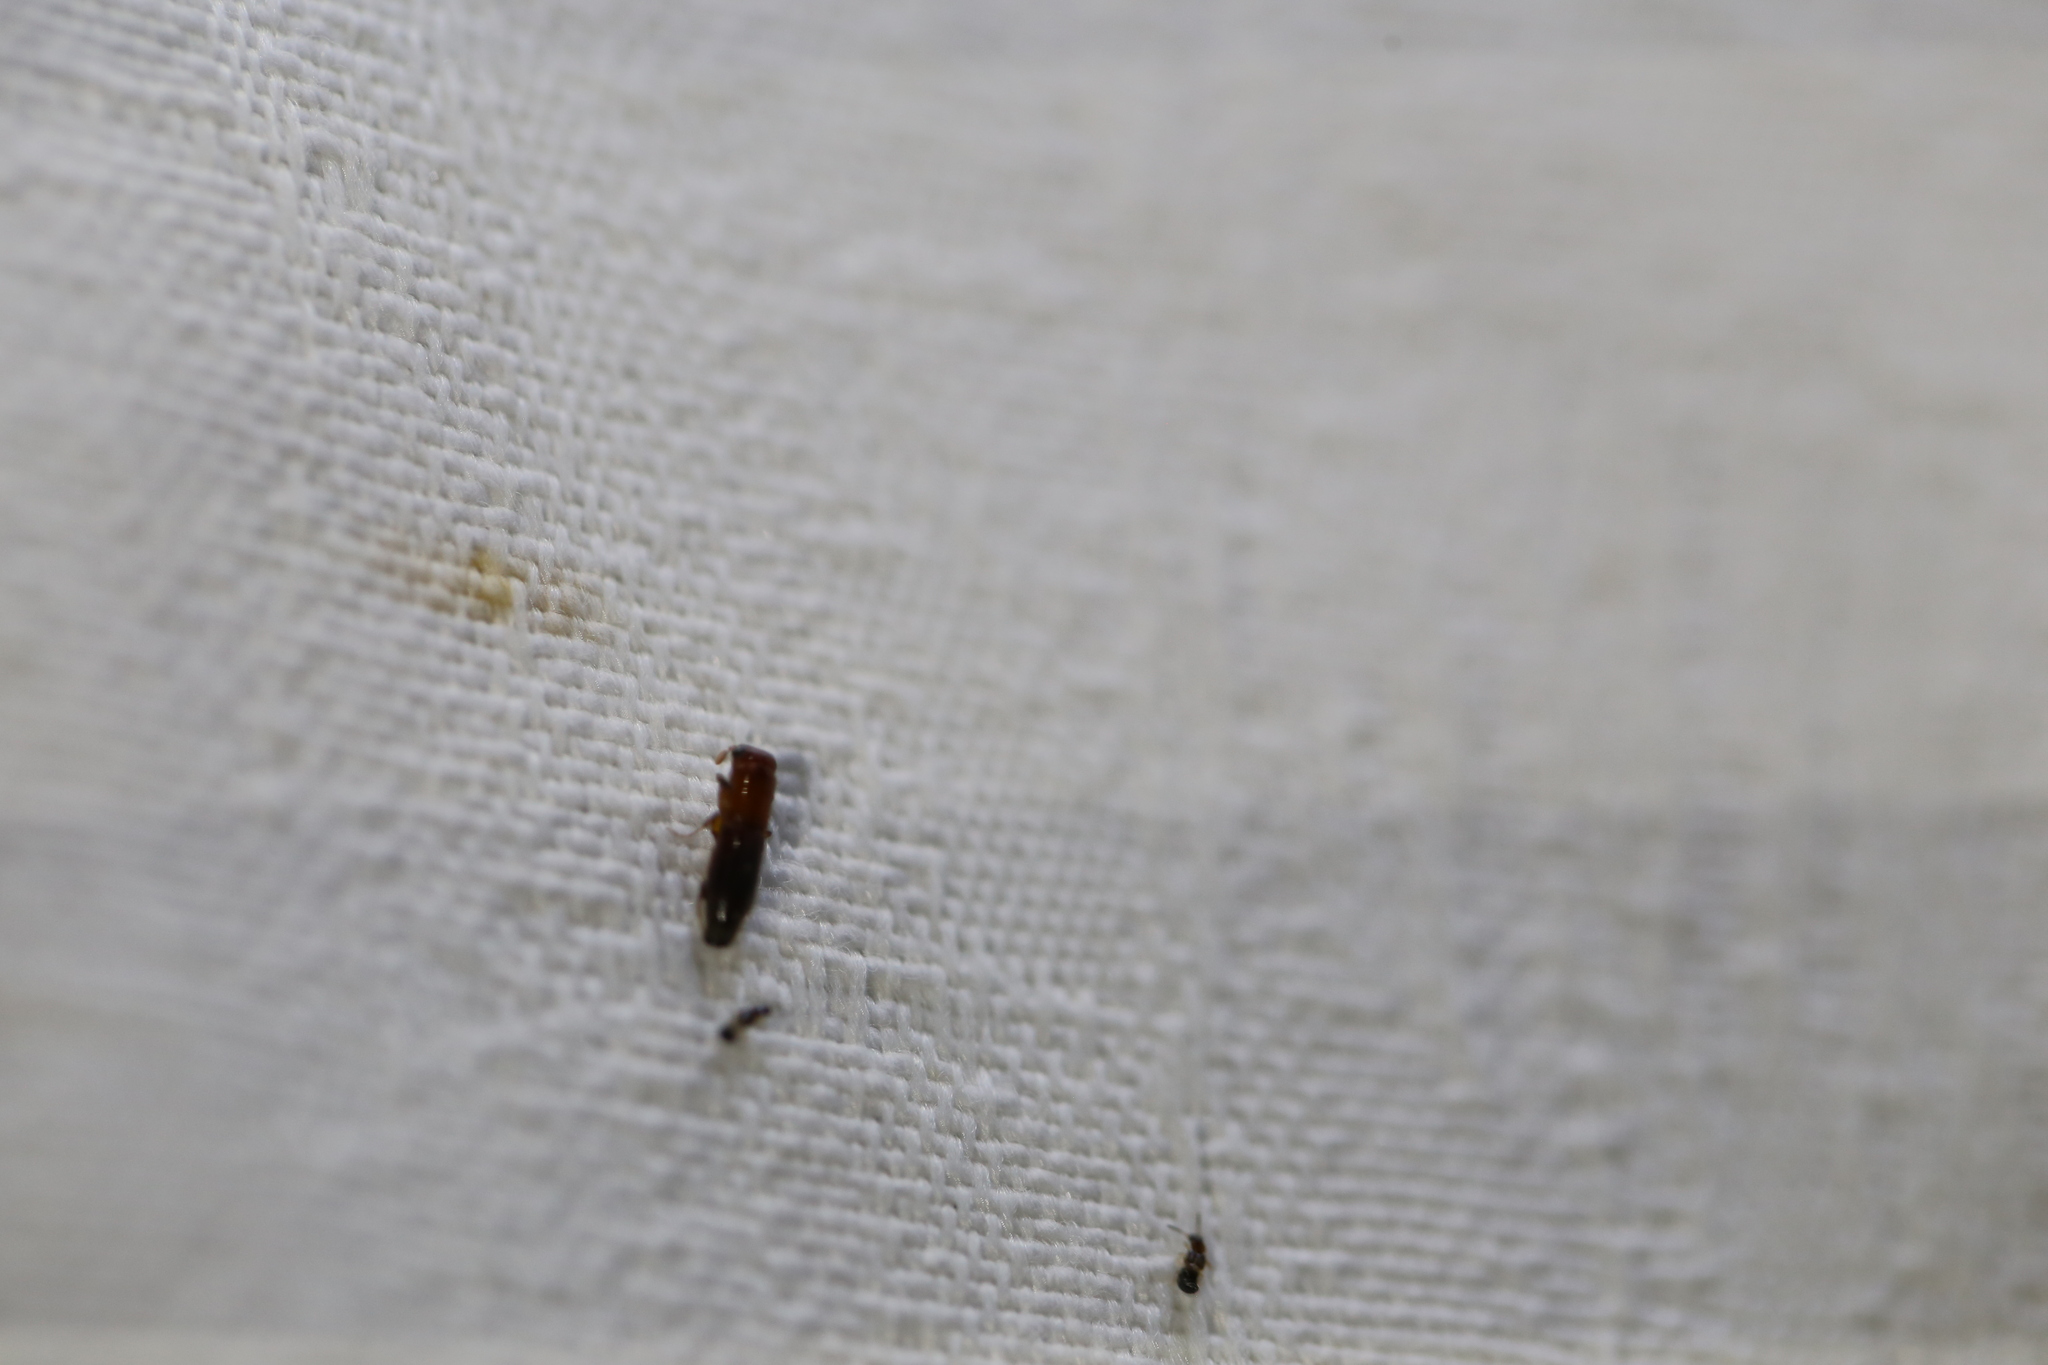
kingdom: Animalia
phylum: Arthropoda
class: Insecta
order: Coleoptera
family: Curculionidae
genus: Treptoplatypus
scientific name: Treptoplatypus
